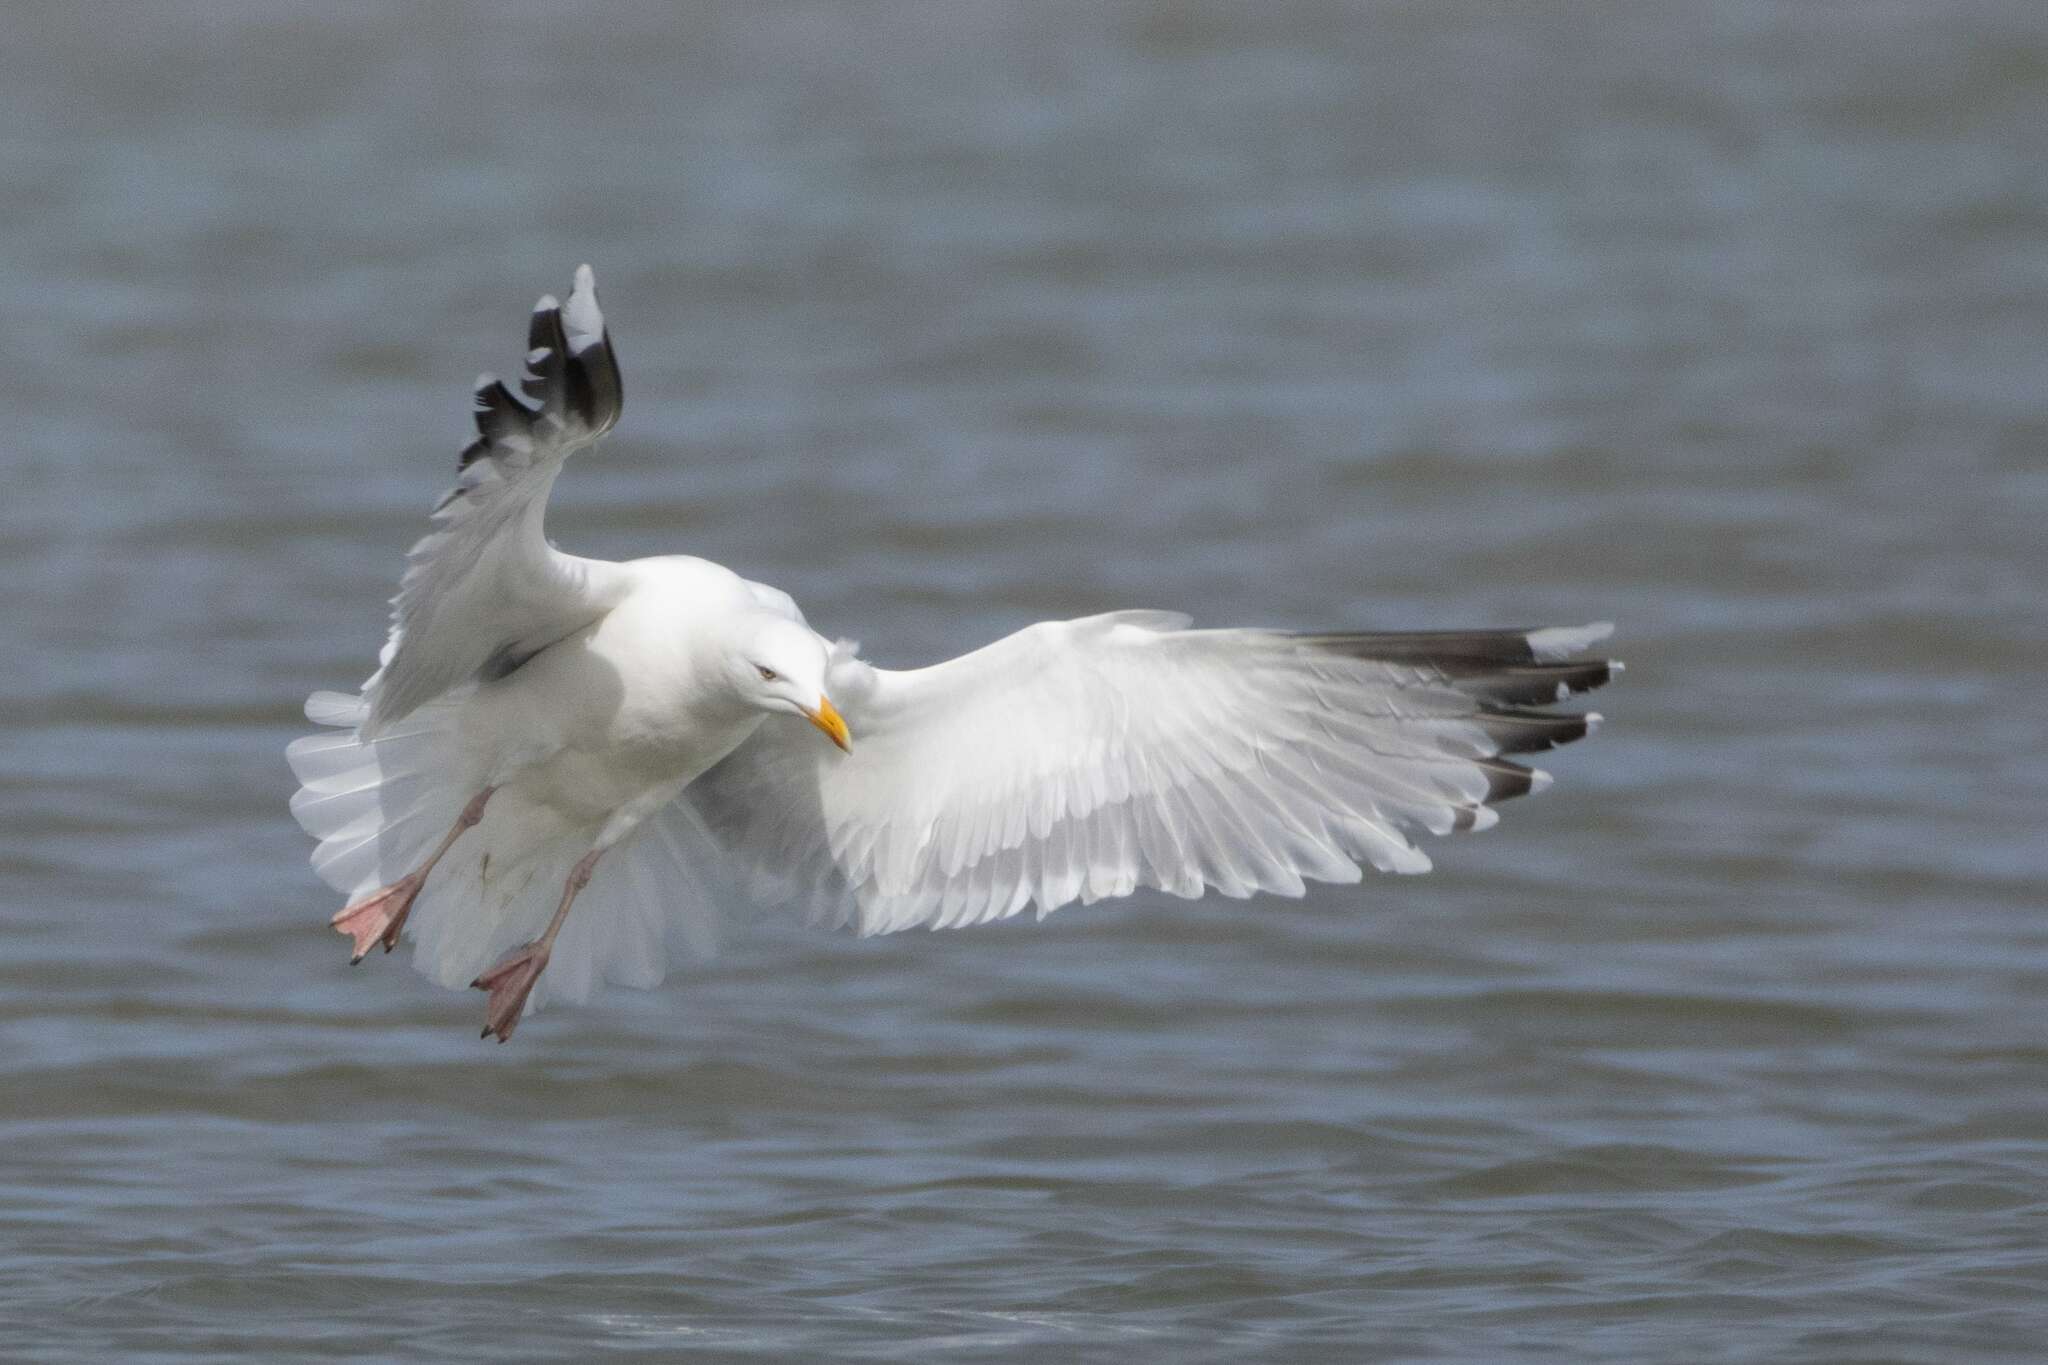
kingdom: Animalia
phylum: Chordata
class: Aves
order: Charadriiformes
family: Laridae
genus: Larus
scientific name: Larus argentatus
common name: Herring gull
